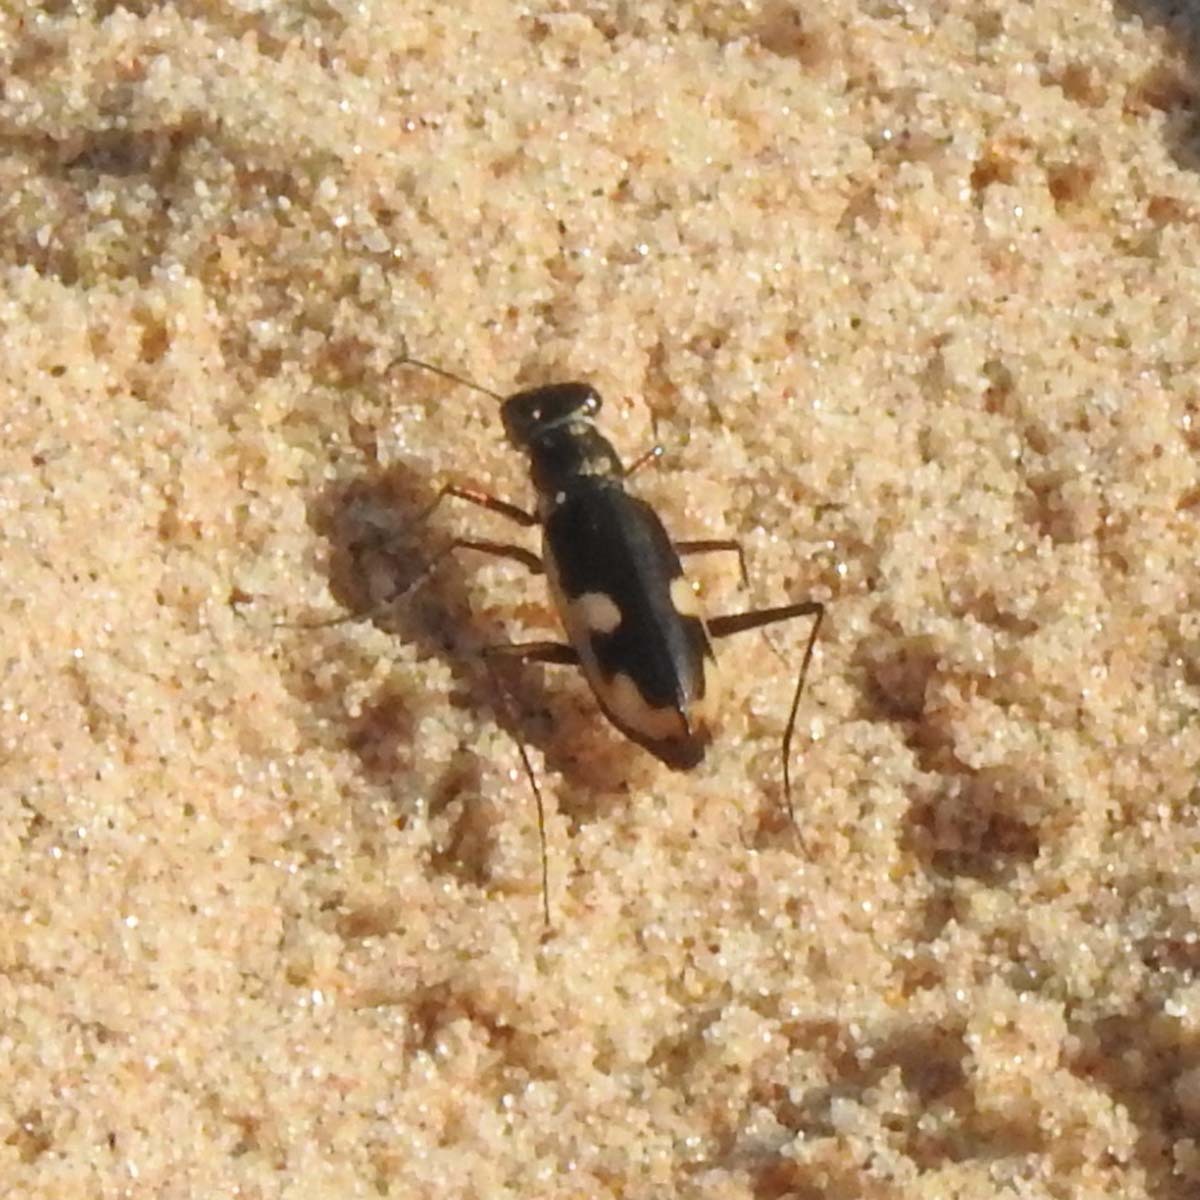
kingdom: Animalia
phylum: Arthropoda
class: Insecta
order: Coleoptera
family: Carabidae
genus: Hypaetha
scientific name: Hypaetha biramosa
